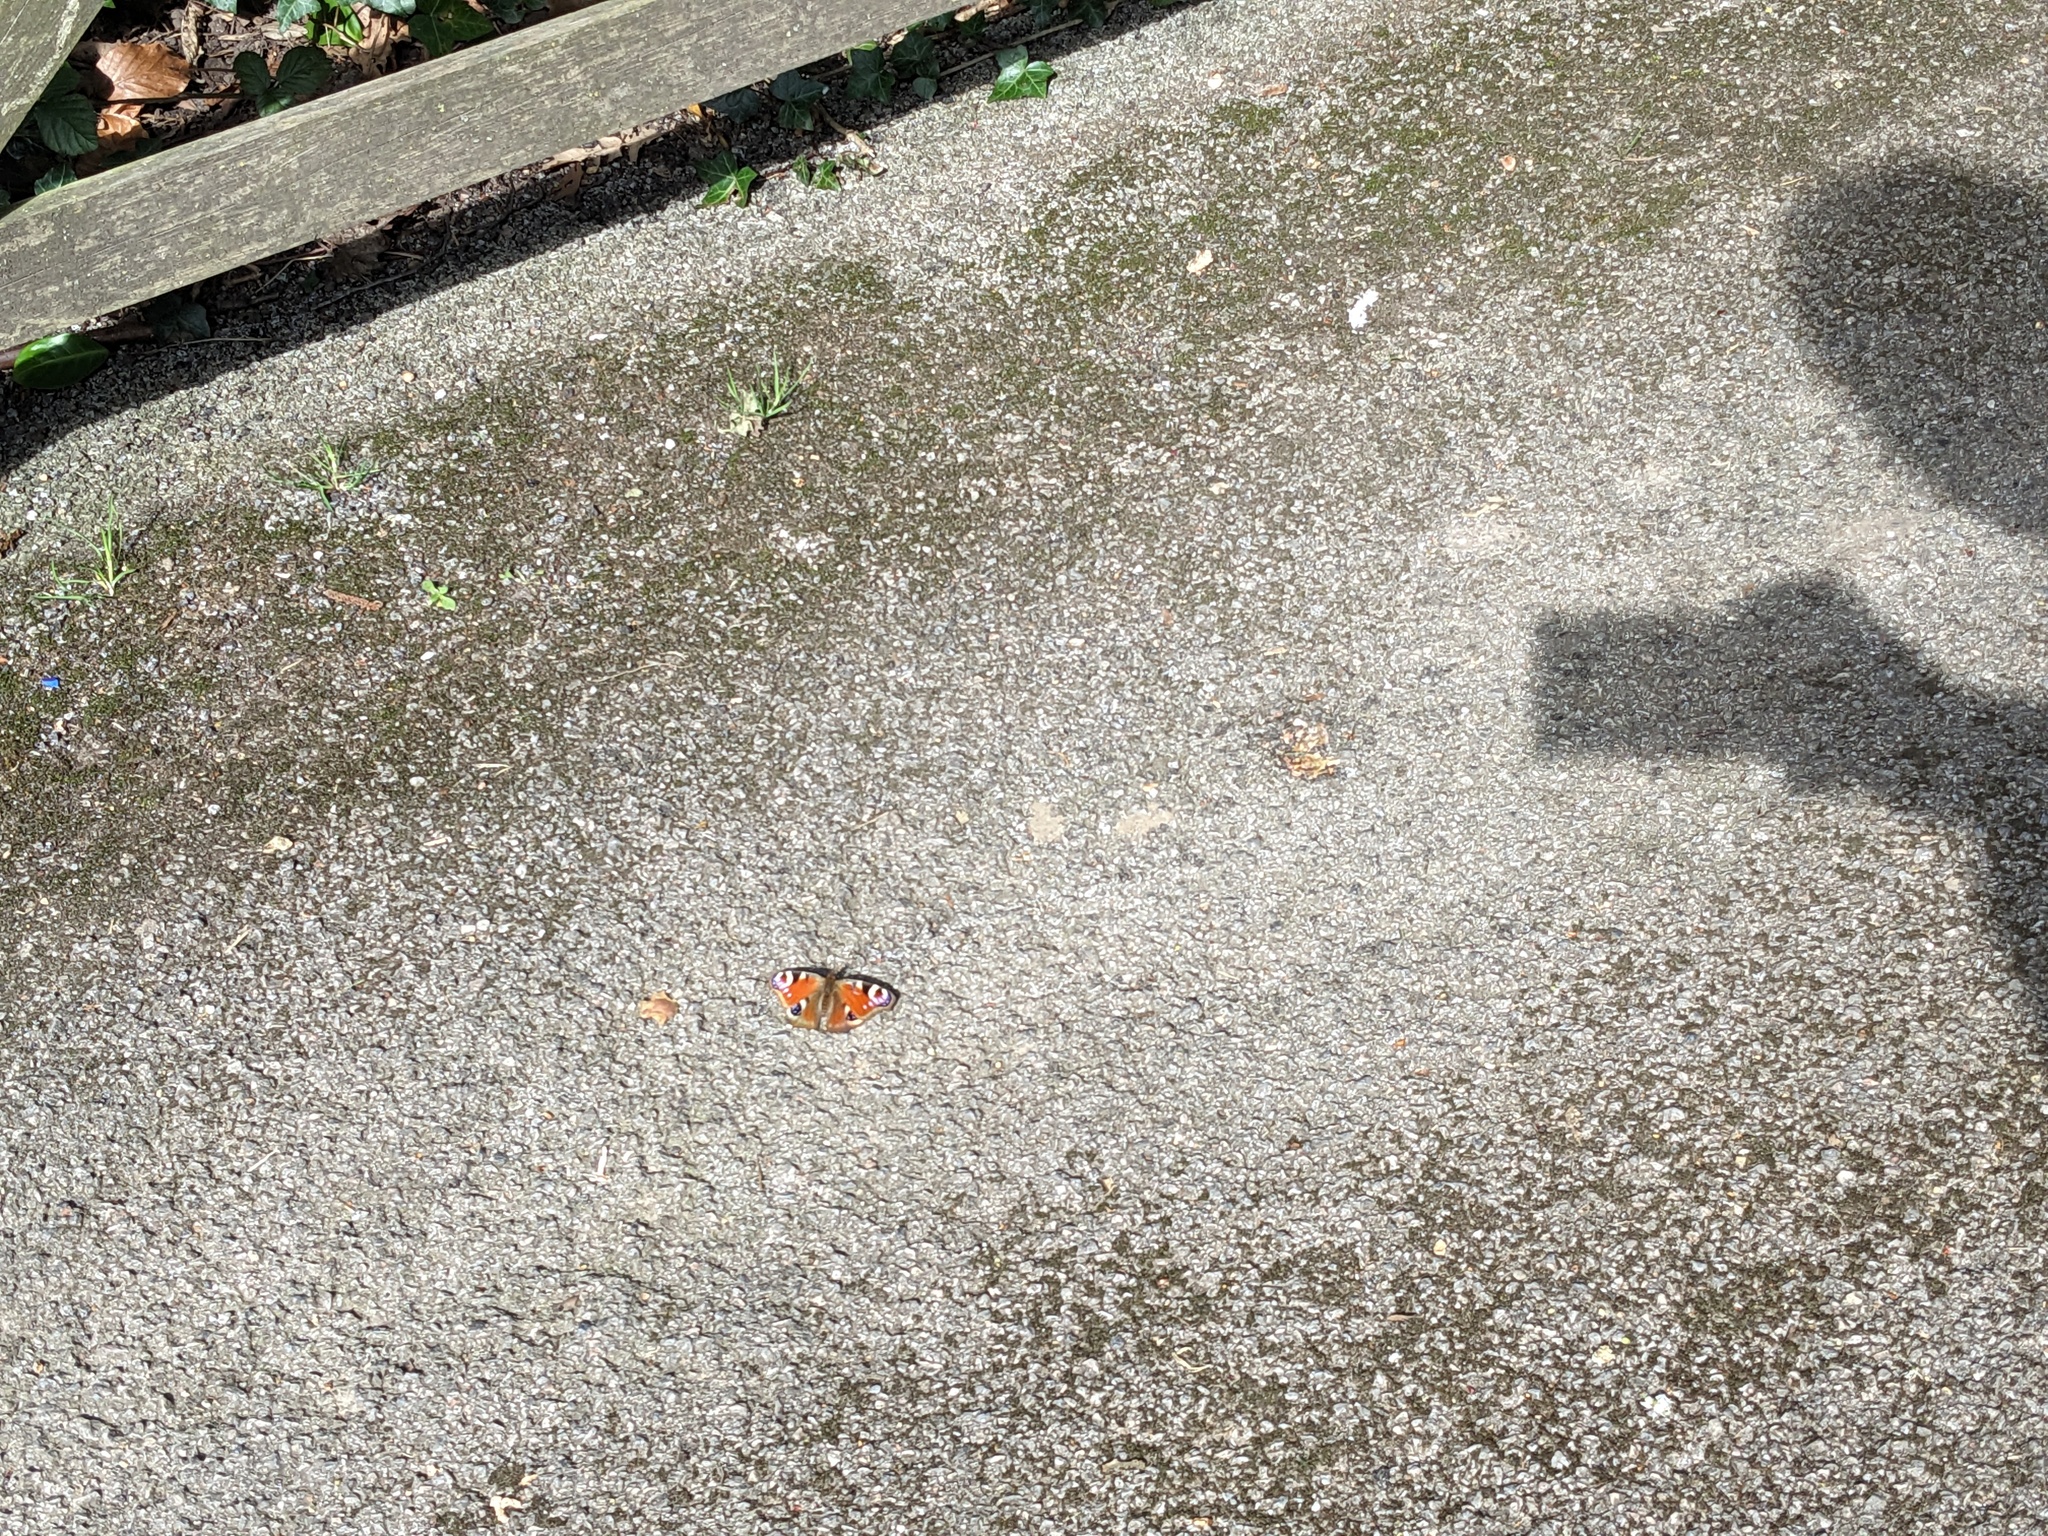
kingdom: Animalia
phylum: Arthropoda
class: Insecta
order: Lepidoptera
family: Nymphalidae
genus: Aglais
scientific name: Aglais io
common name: Peacock
